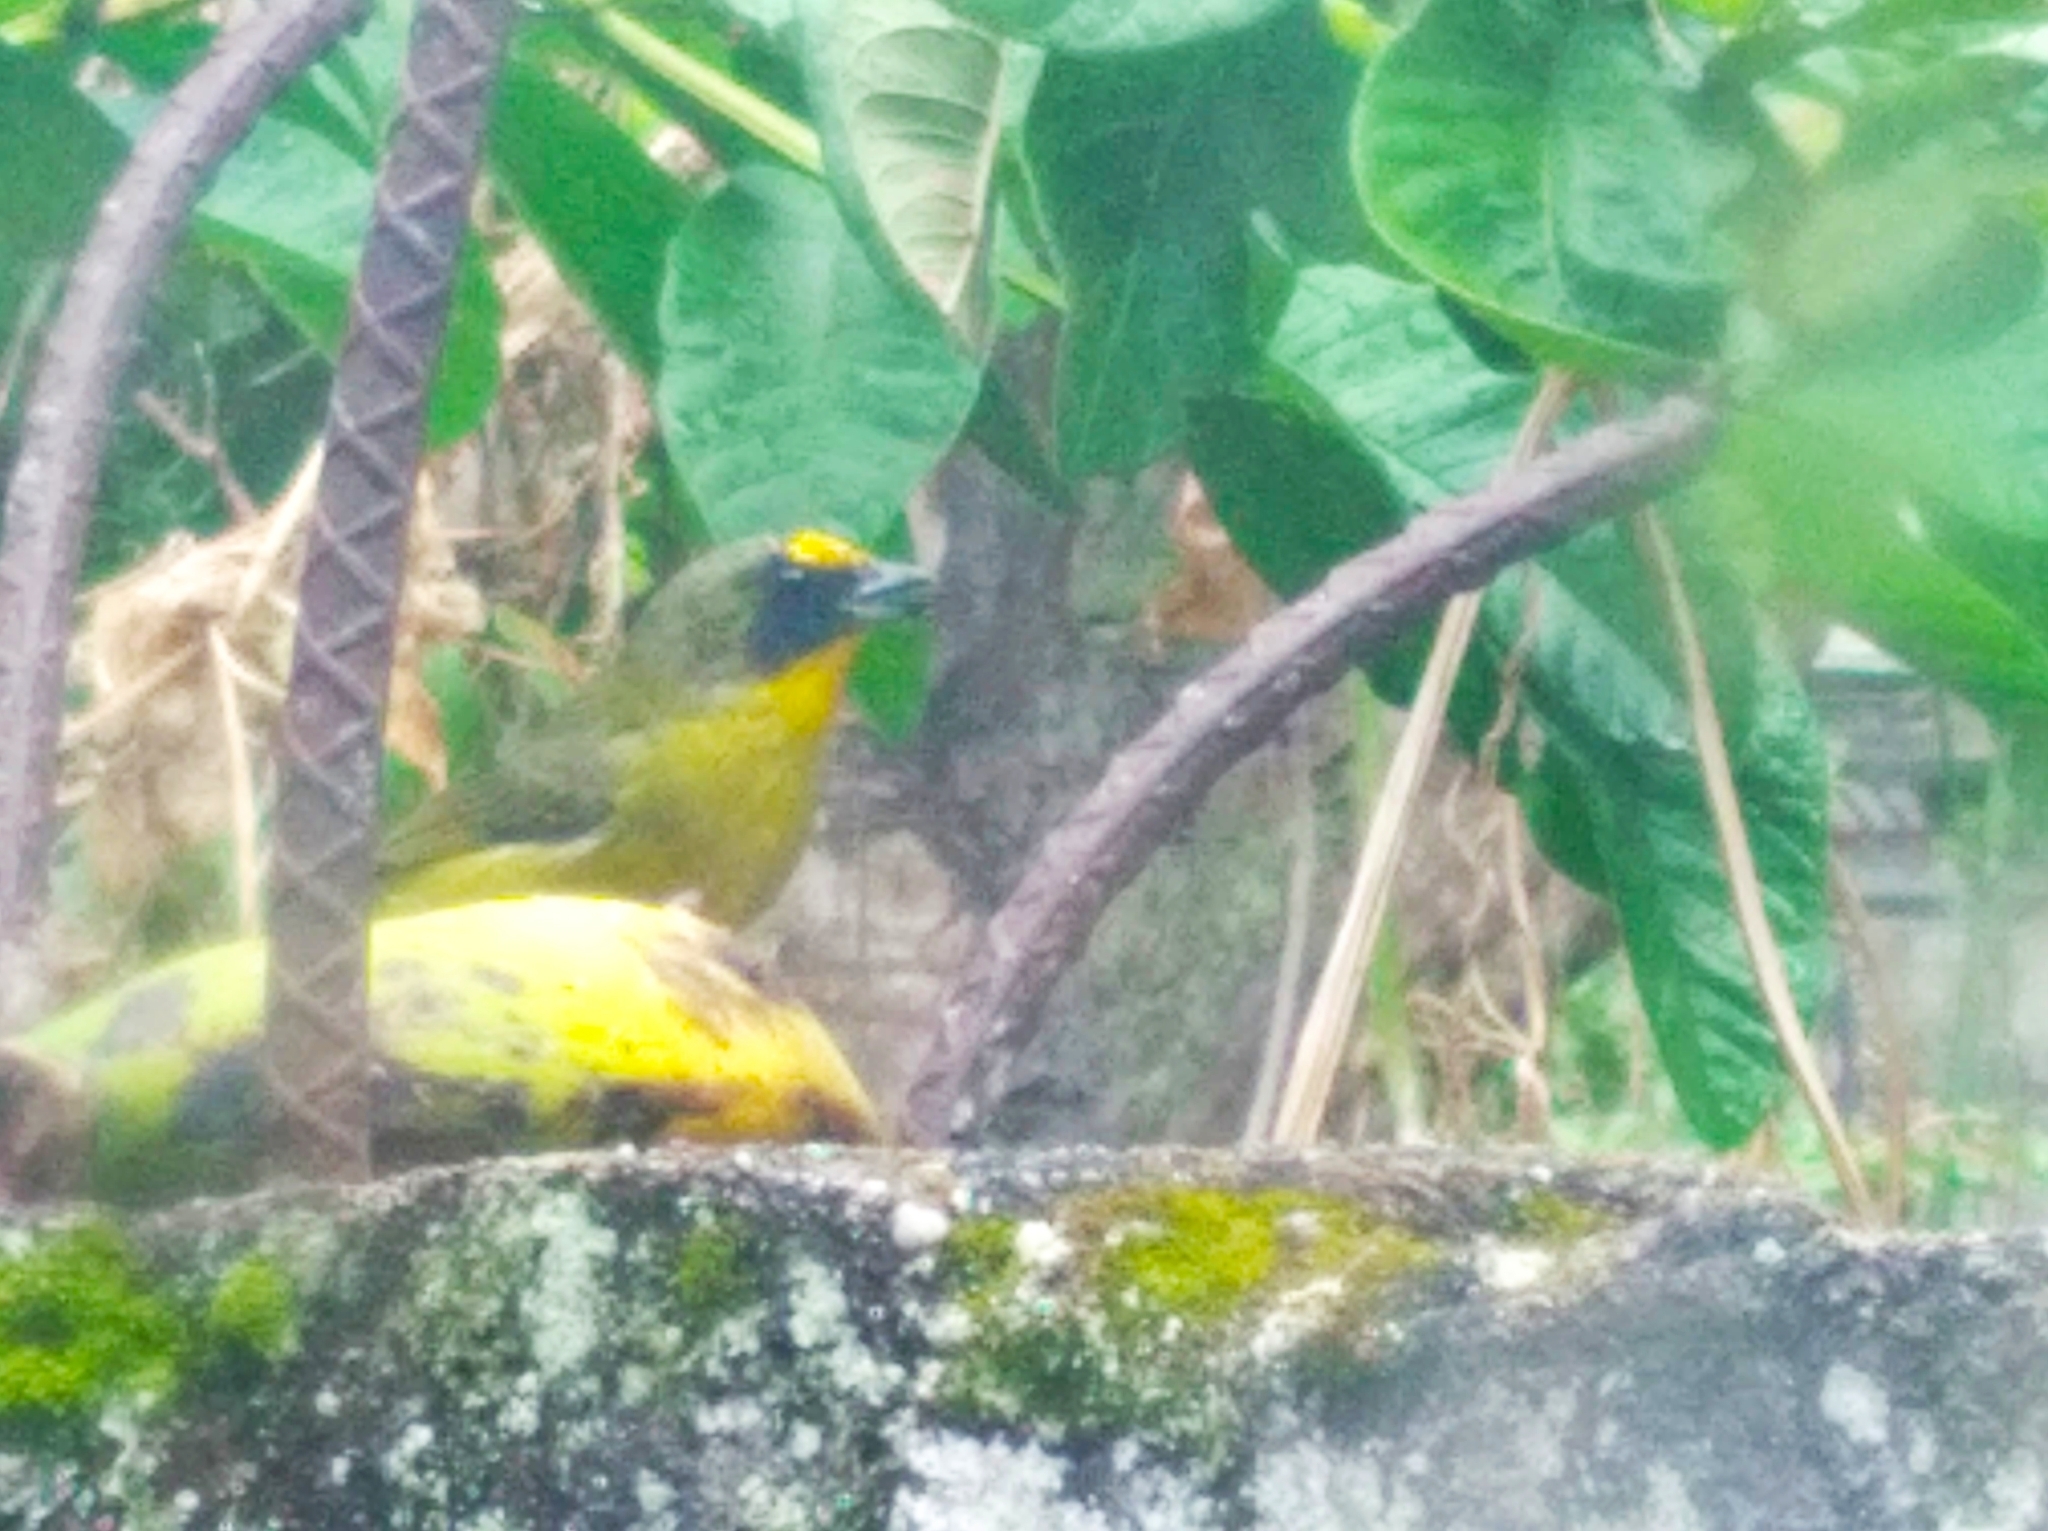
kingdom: Animalia
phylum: Chordata
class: Aves
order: Passeriformes
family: Fringillidae
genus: Euphonia
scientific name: Euphonia laniirostris
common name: Thick-billed euphonia
